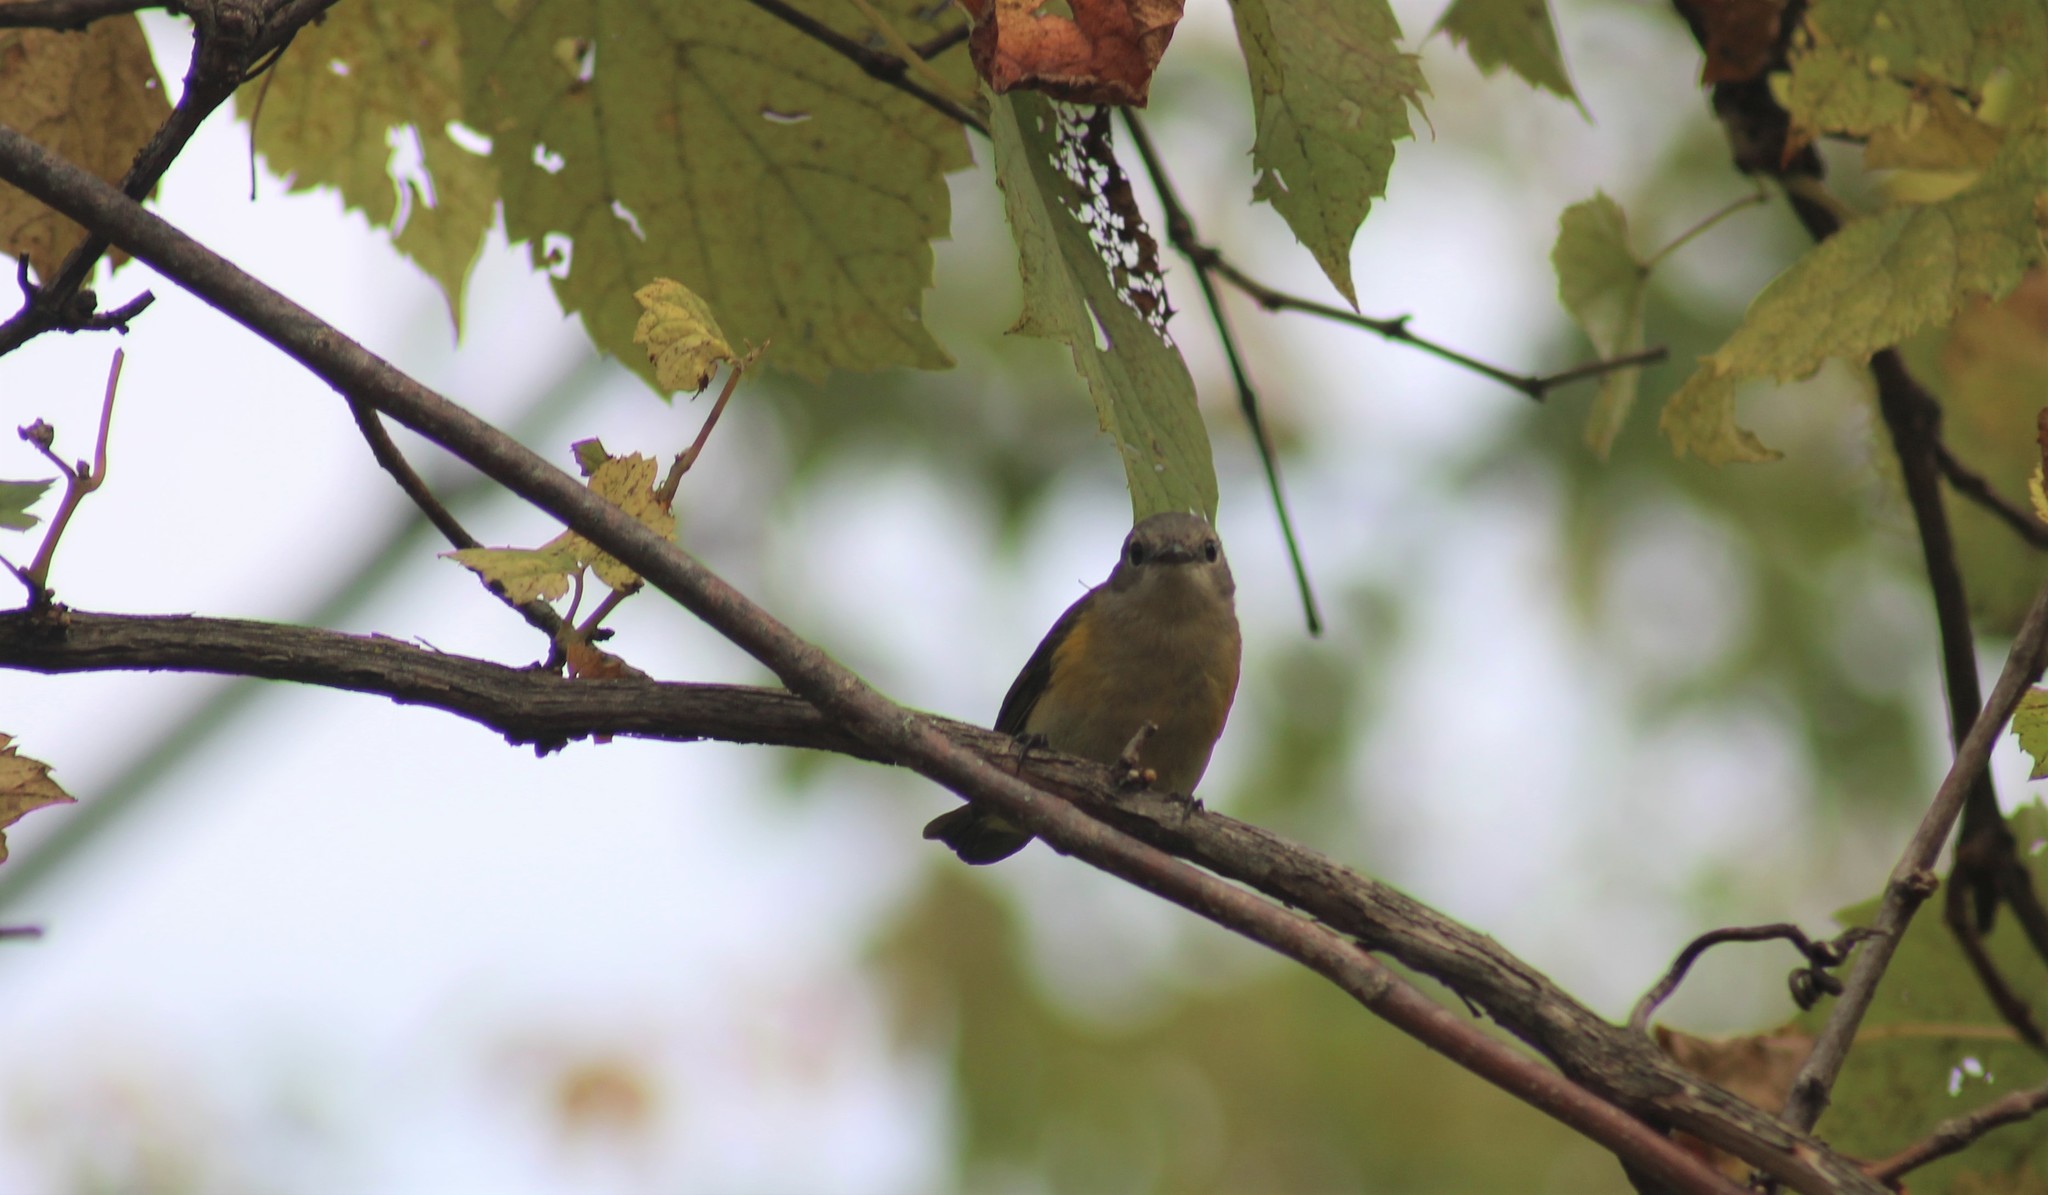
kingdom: Animalia
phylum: Chordata
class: Aves
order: Passeriformes
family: Parulidae
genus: Setophaga
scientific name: Setophaga ruticilla
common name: American redstart
